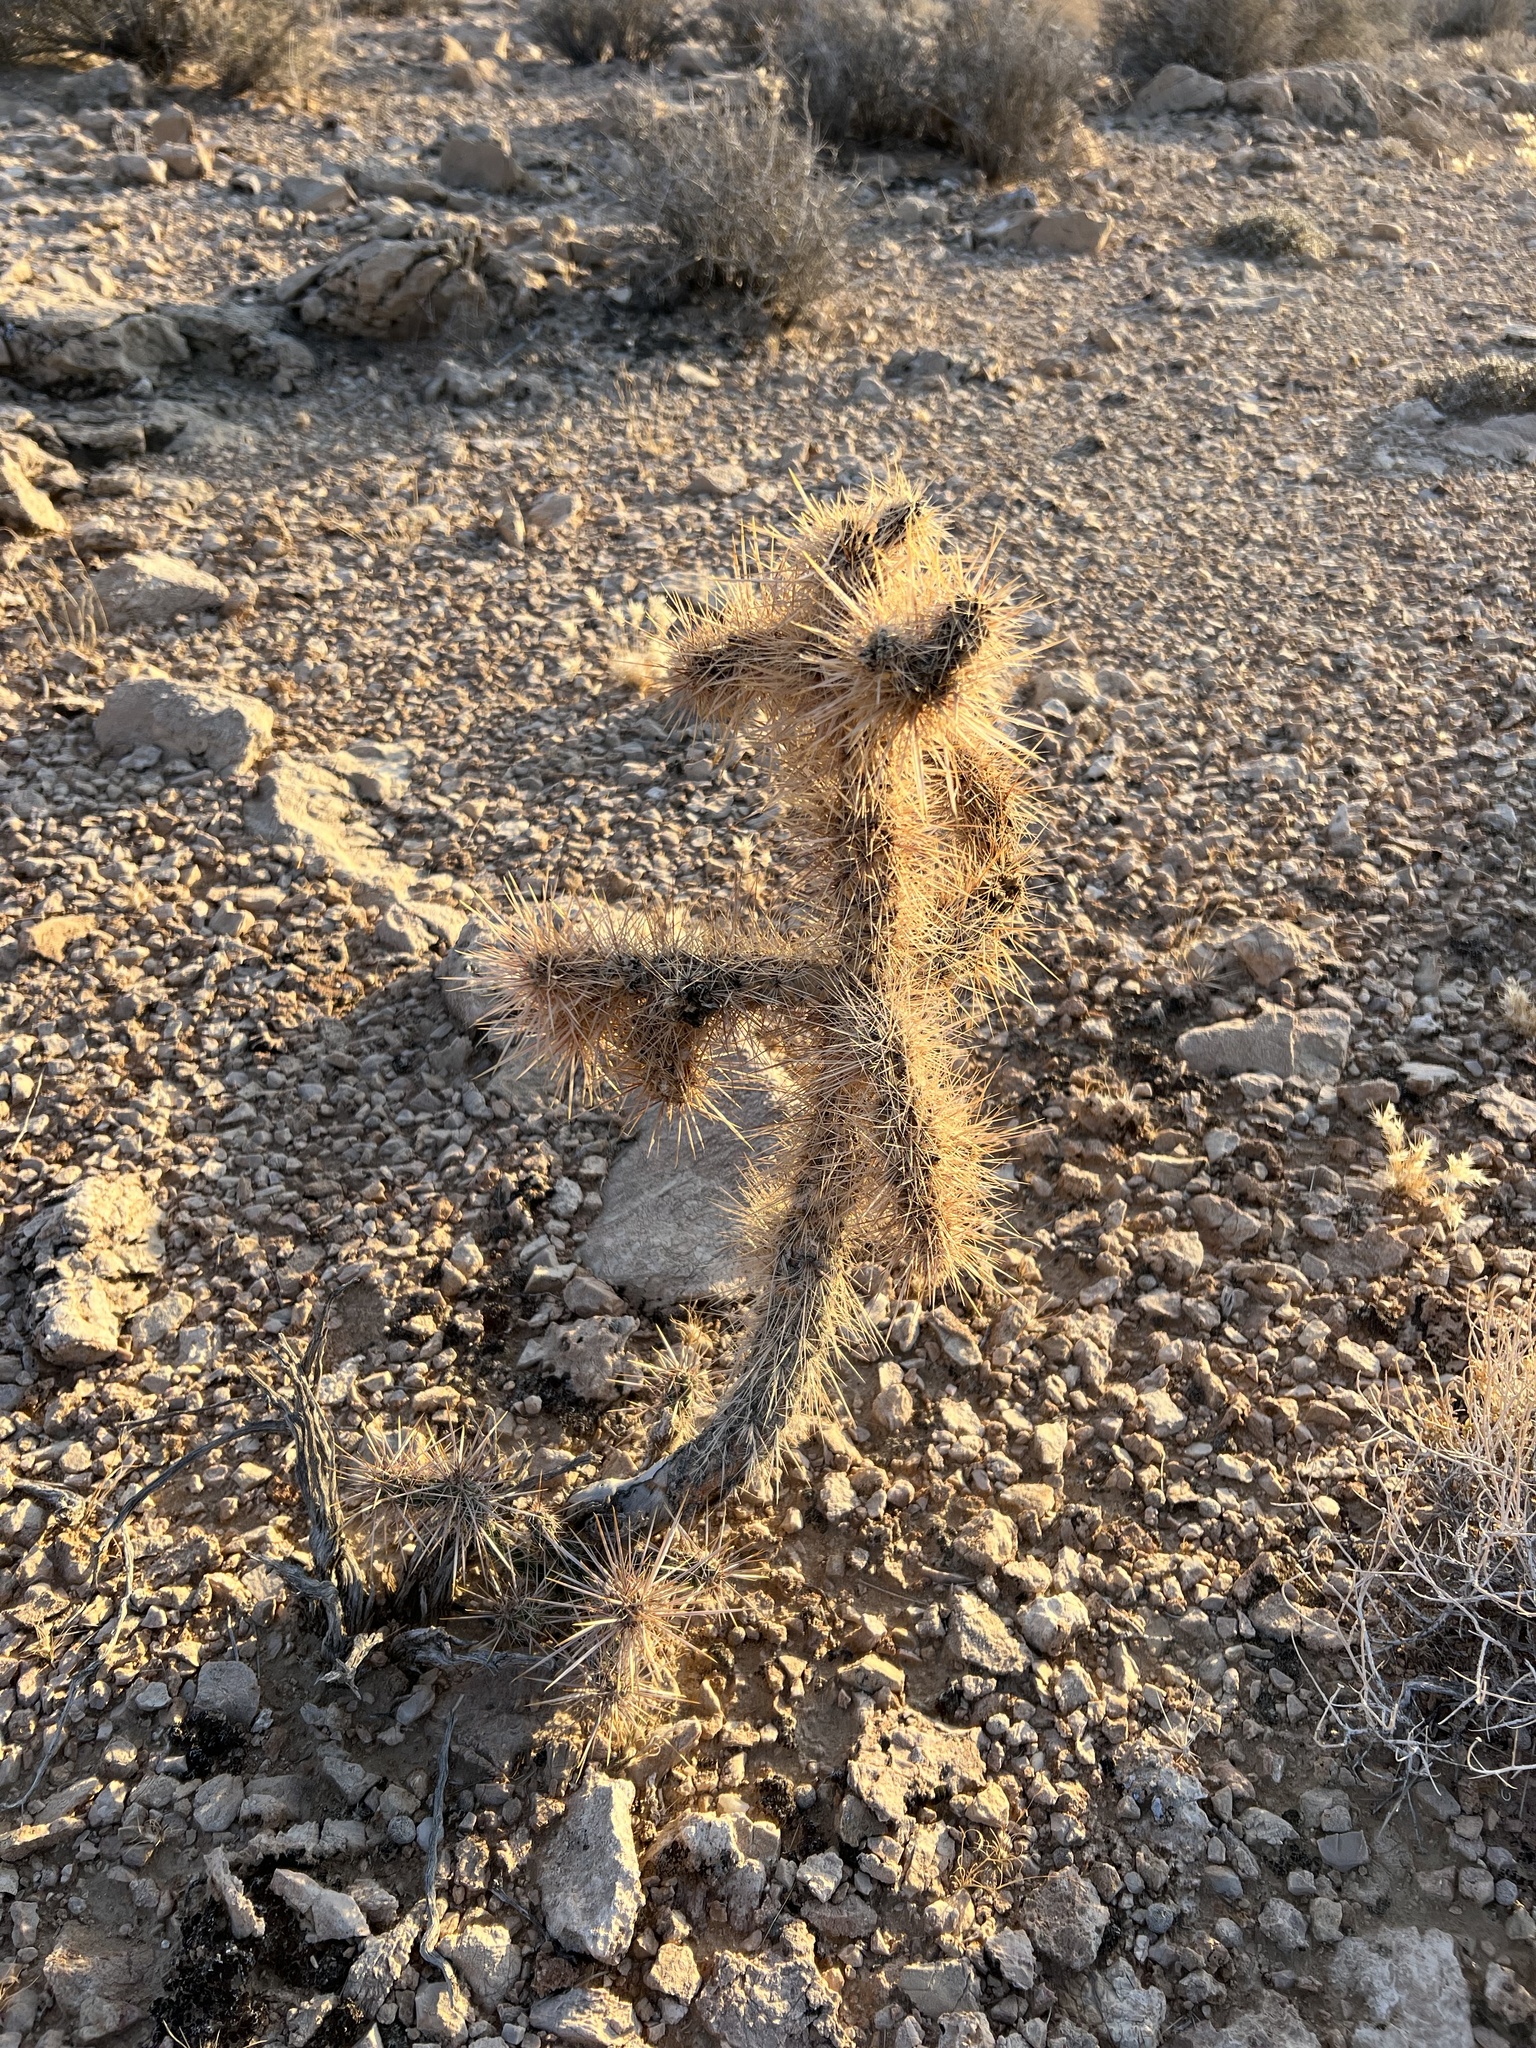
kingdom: Plantae
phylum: Tracheophyta
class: Magnoliopsida
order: Caryophyllales
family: Cactaceae
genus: Cylindropuntia
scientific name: Cylindropuntia echinocarpa
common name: Ground cholla
